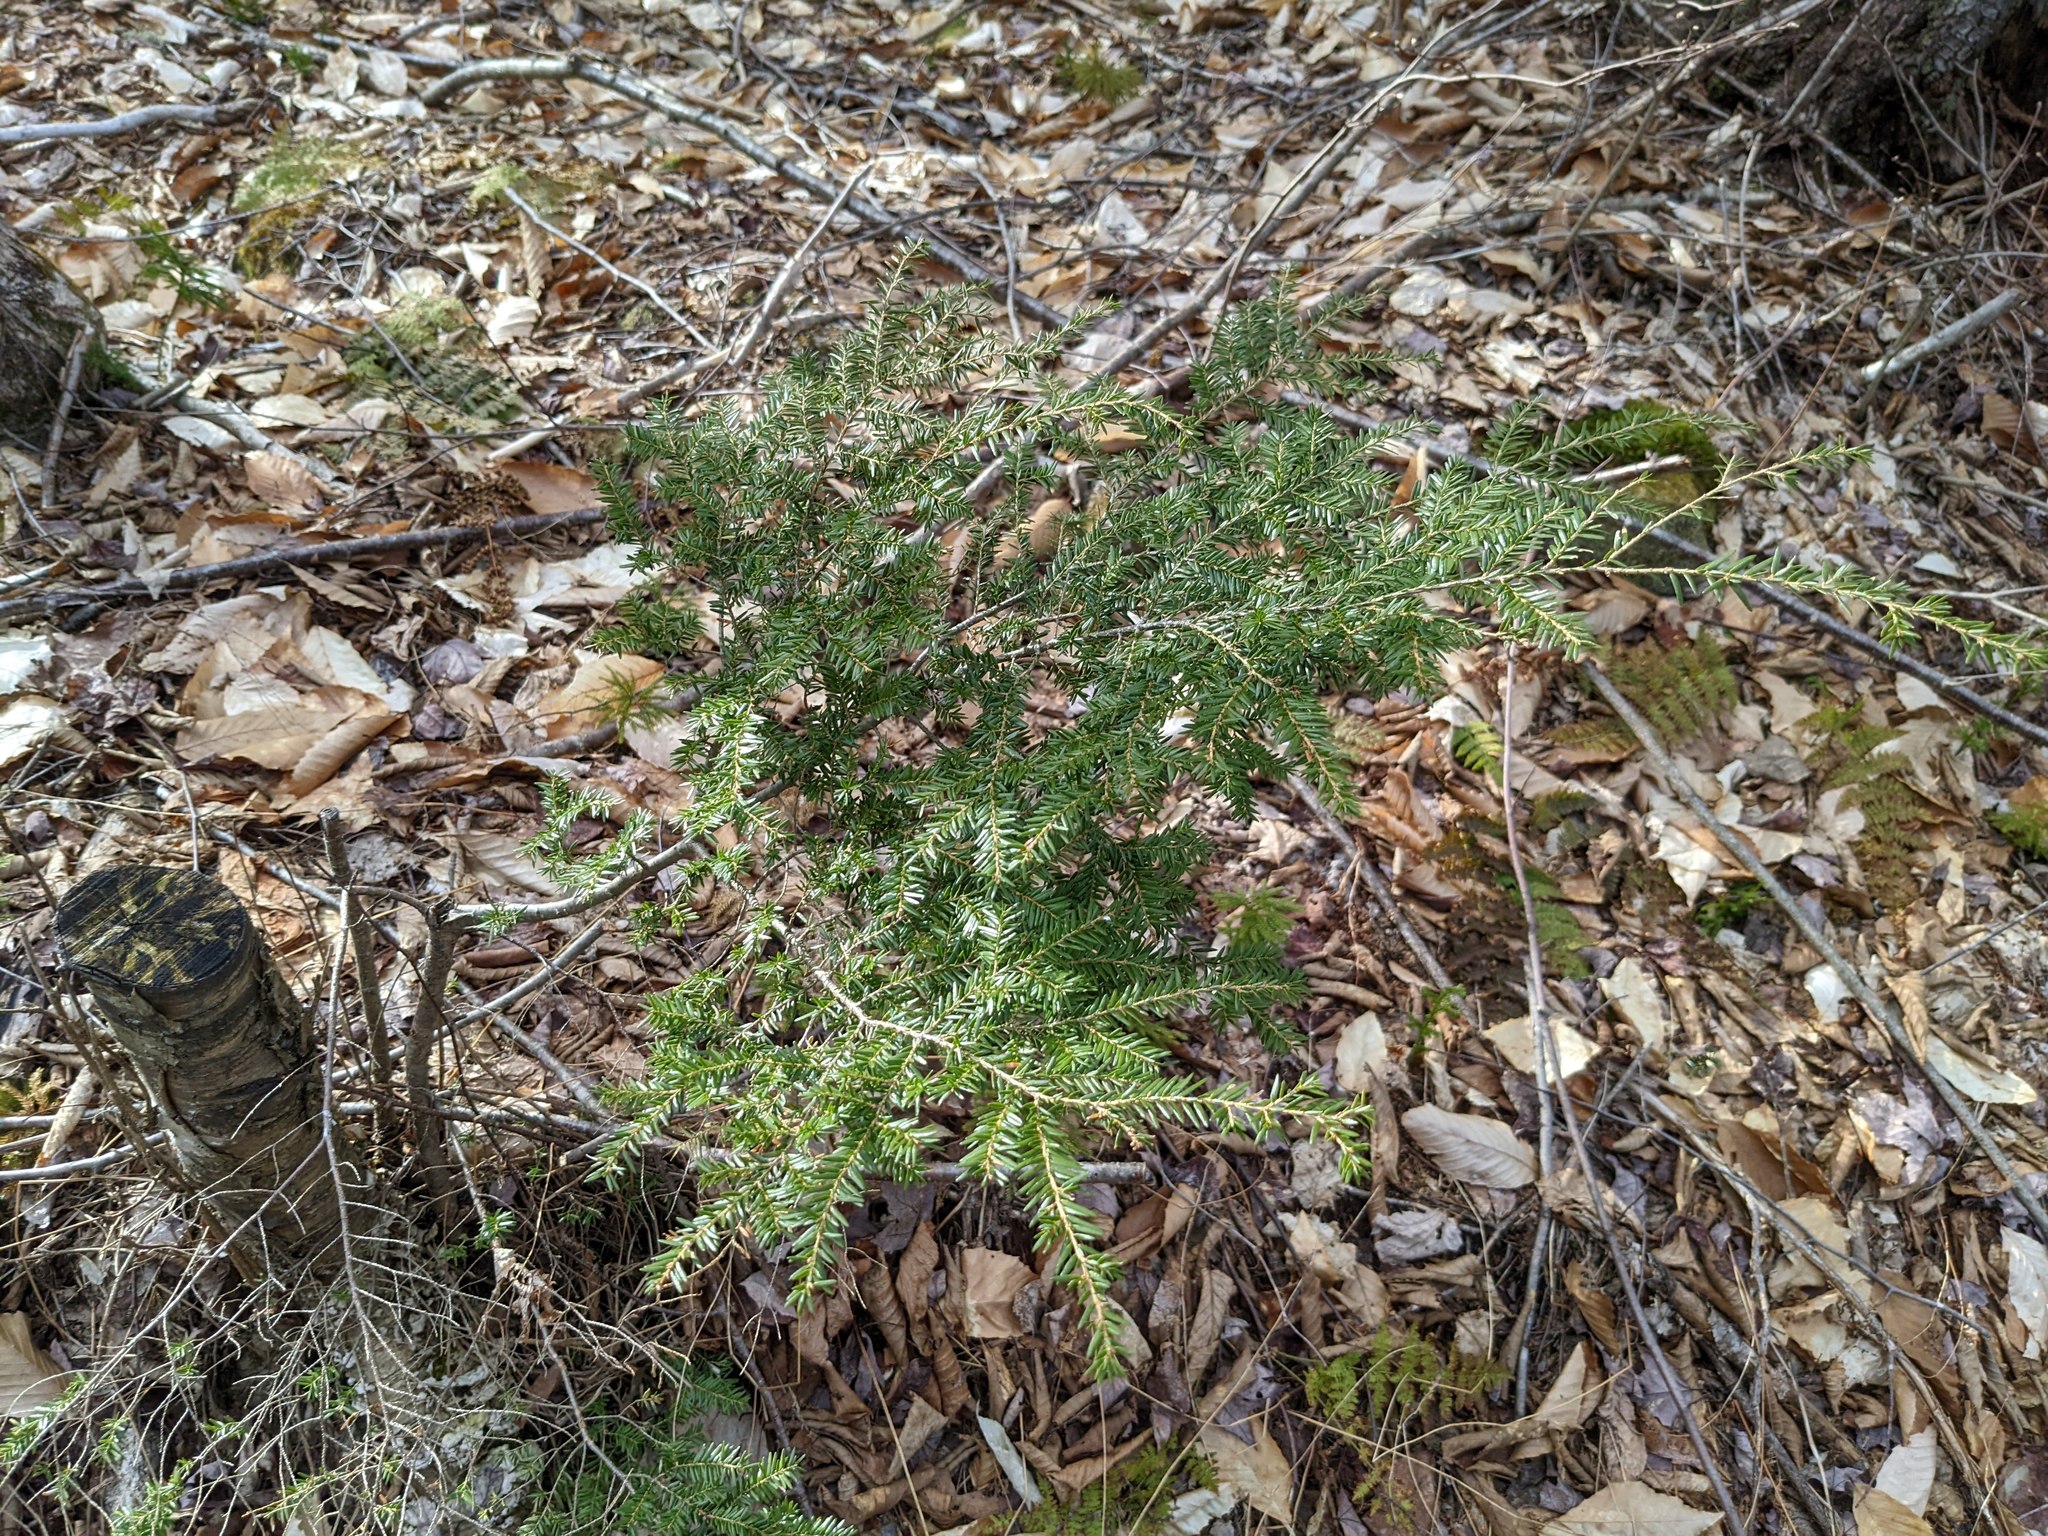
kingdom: Plantae
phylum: Tracheophyta
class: Pinopsida
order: Pinales
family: Pinaceae
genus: Tsuga
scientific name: Tsuga canadensis
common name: Eastern hemlock
